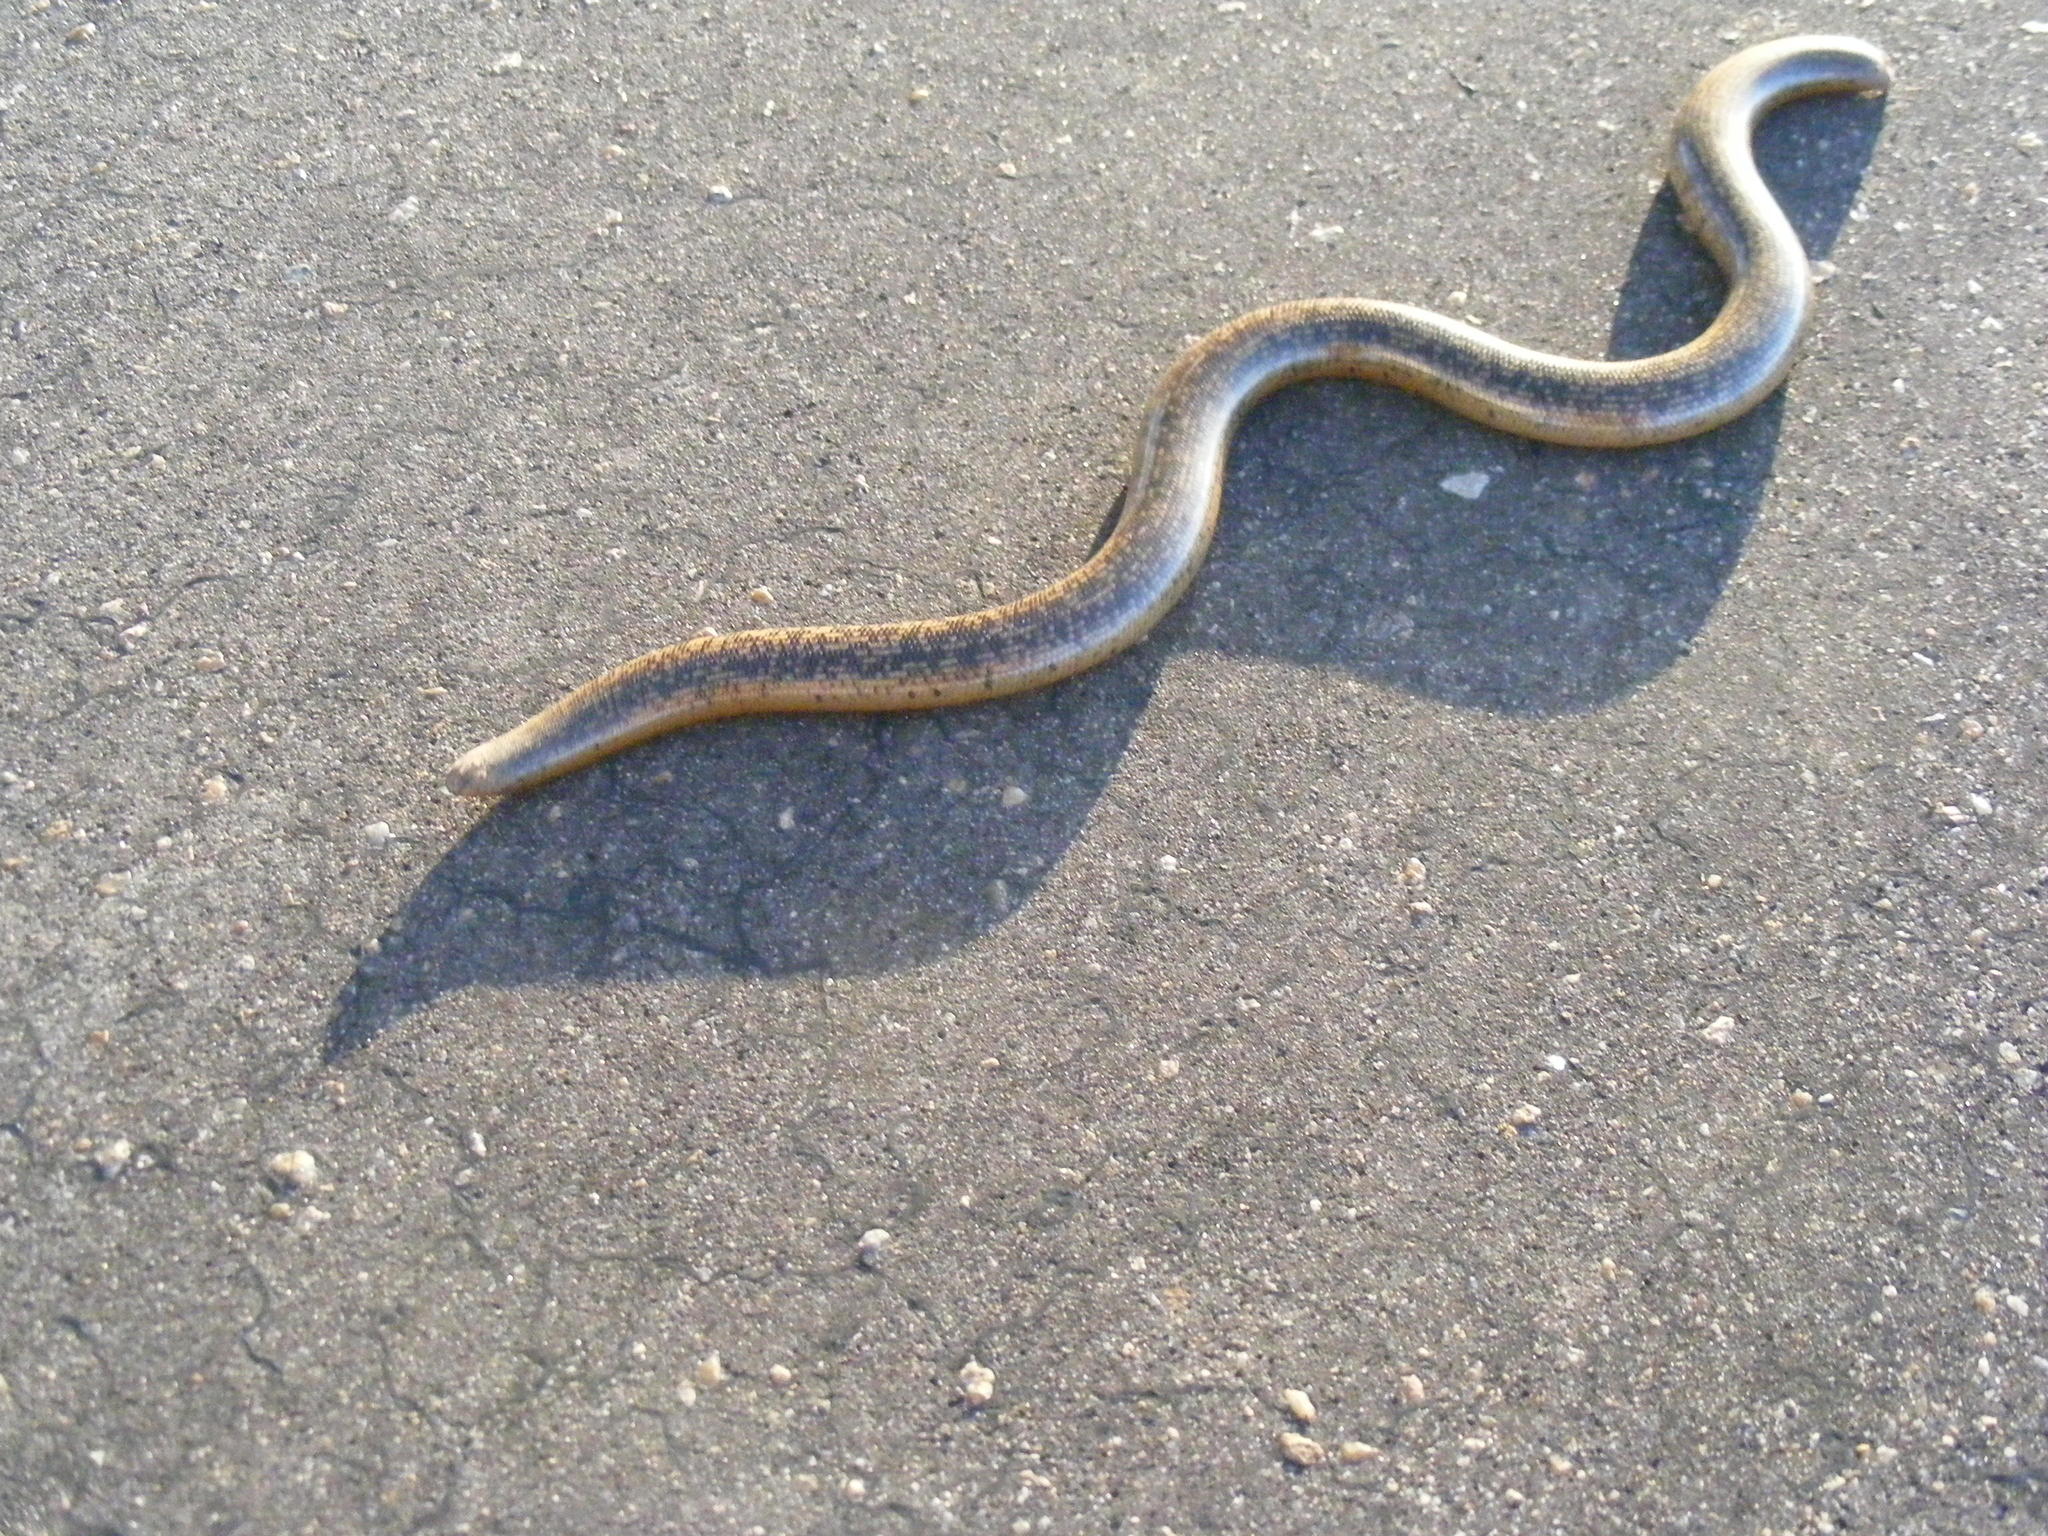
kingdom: Animalia
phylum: Chordata
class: Squamata
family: Typhlopidae
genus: Afrotyphlops
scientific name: Afrotyphlops schlegelii
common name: Schlegel's giant blind snake
